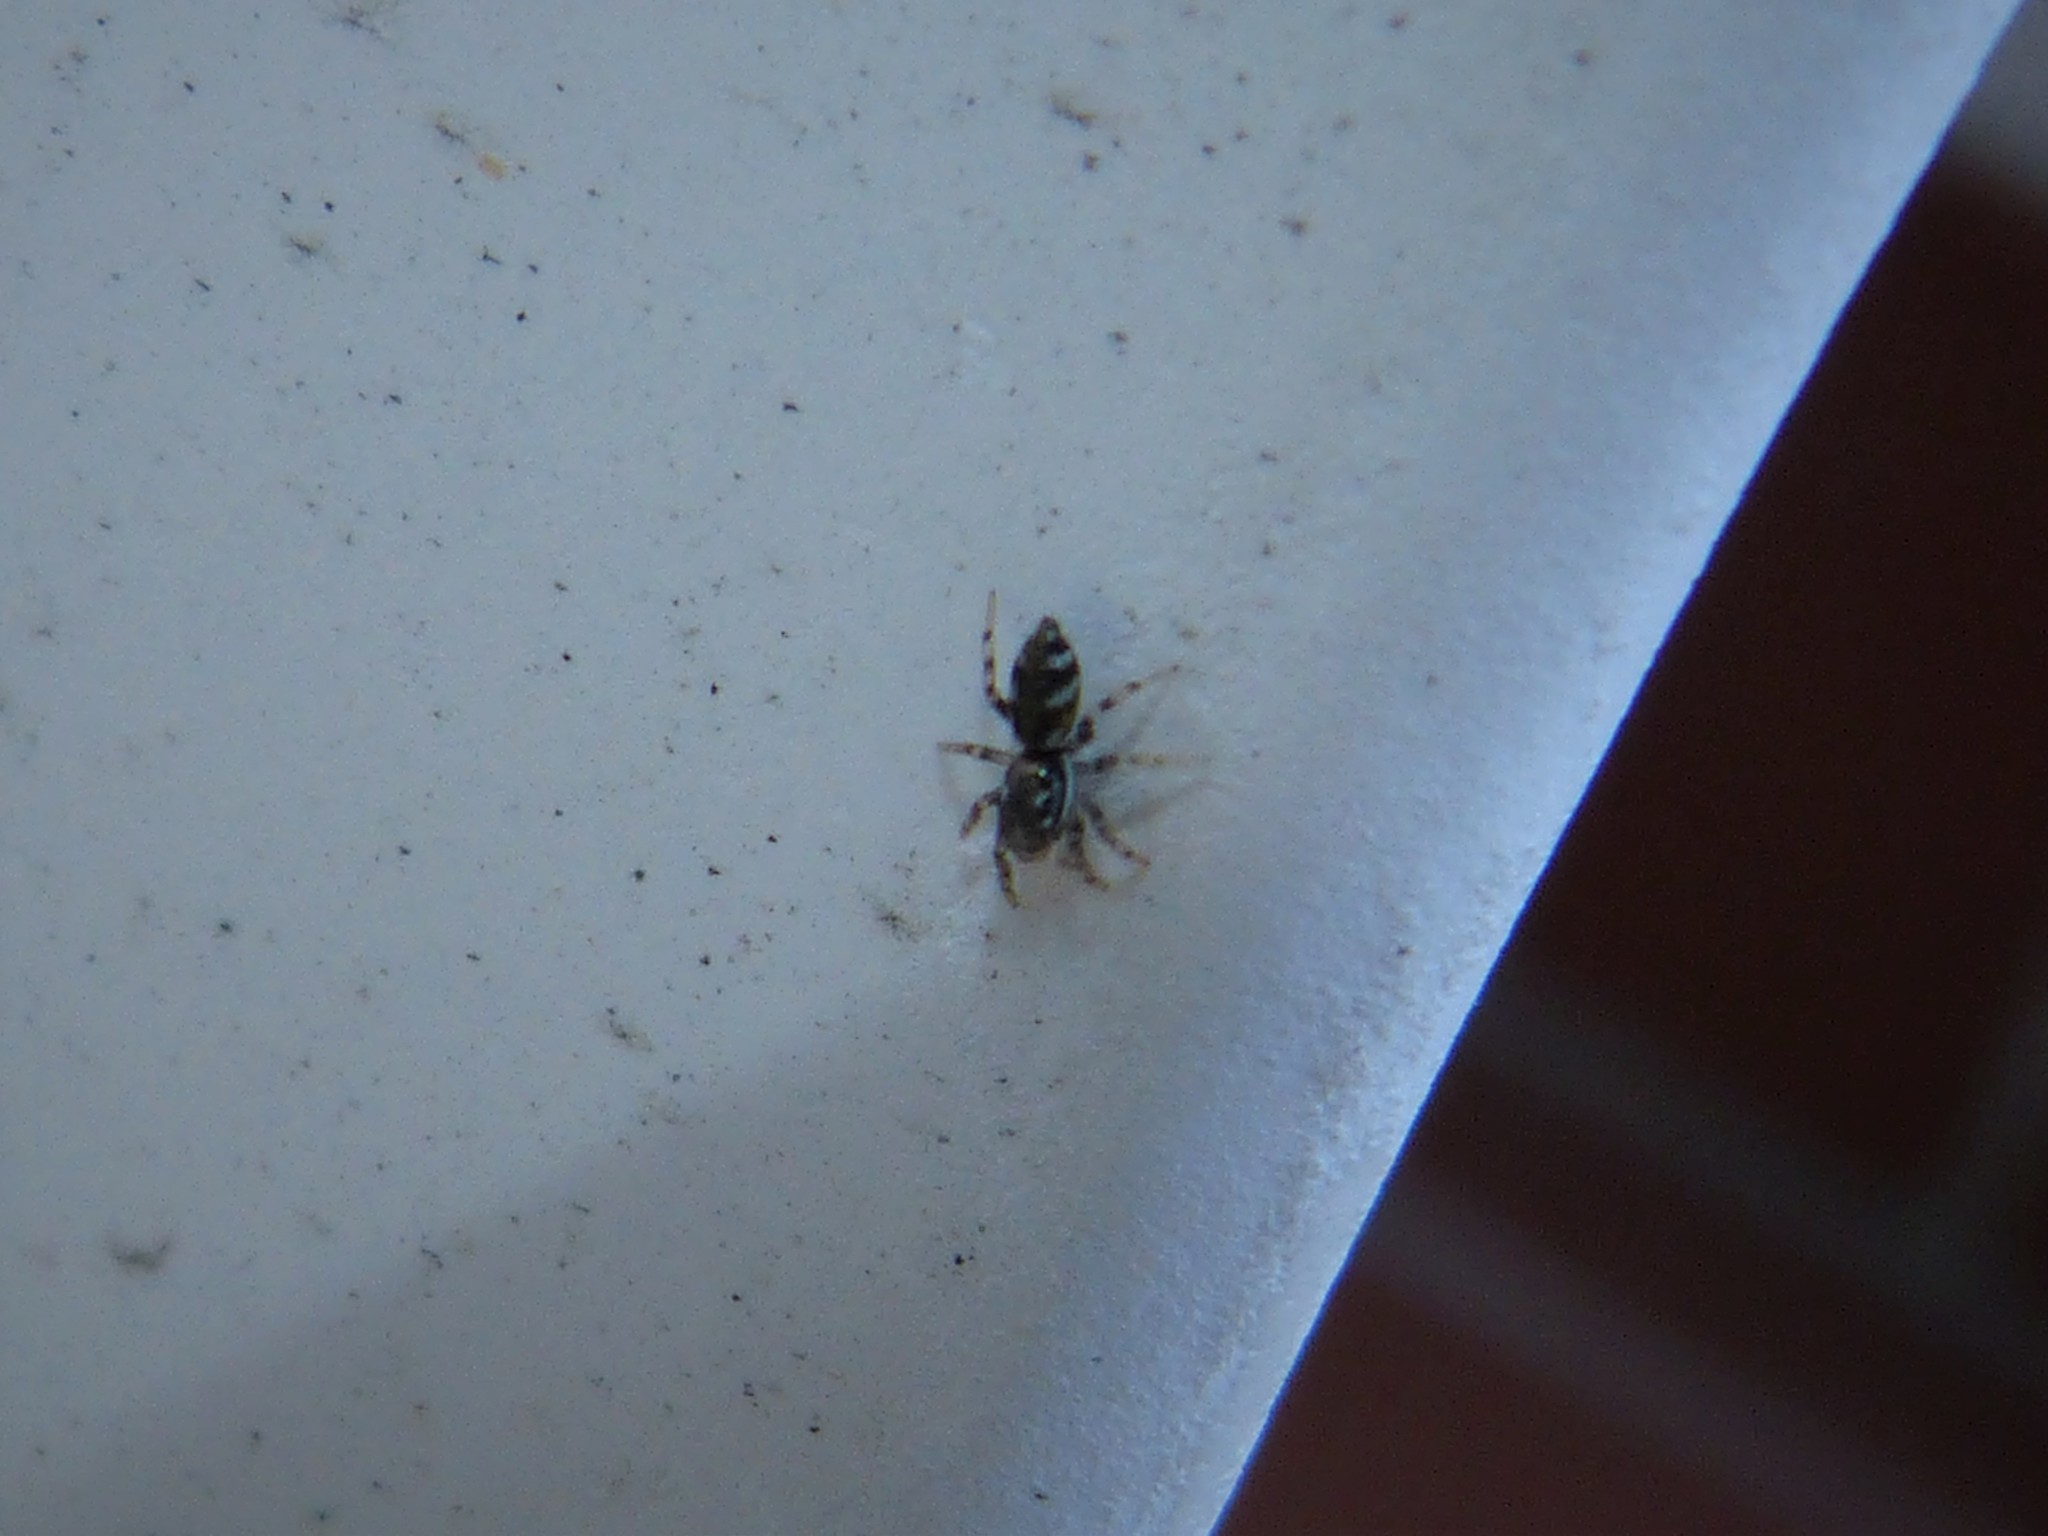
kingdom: Animalia
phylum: Arthropoda
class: Arachnida
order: Araneae
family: Salticidae
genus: Salticus
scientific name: Salticus scenicus
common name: Zebra jumper
